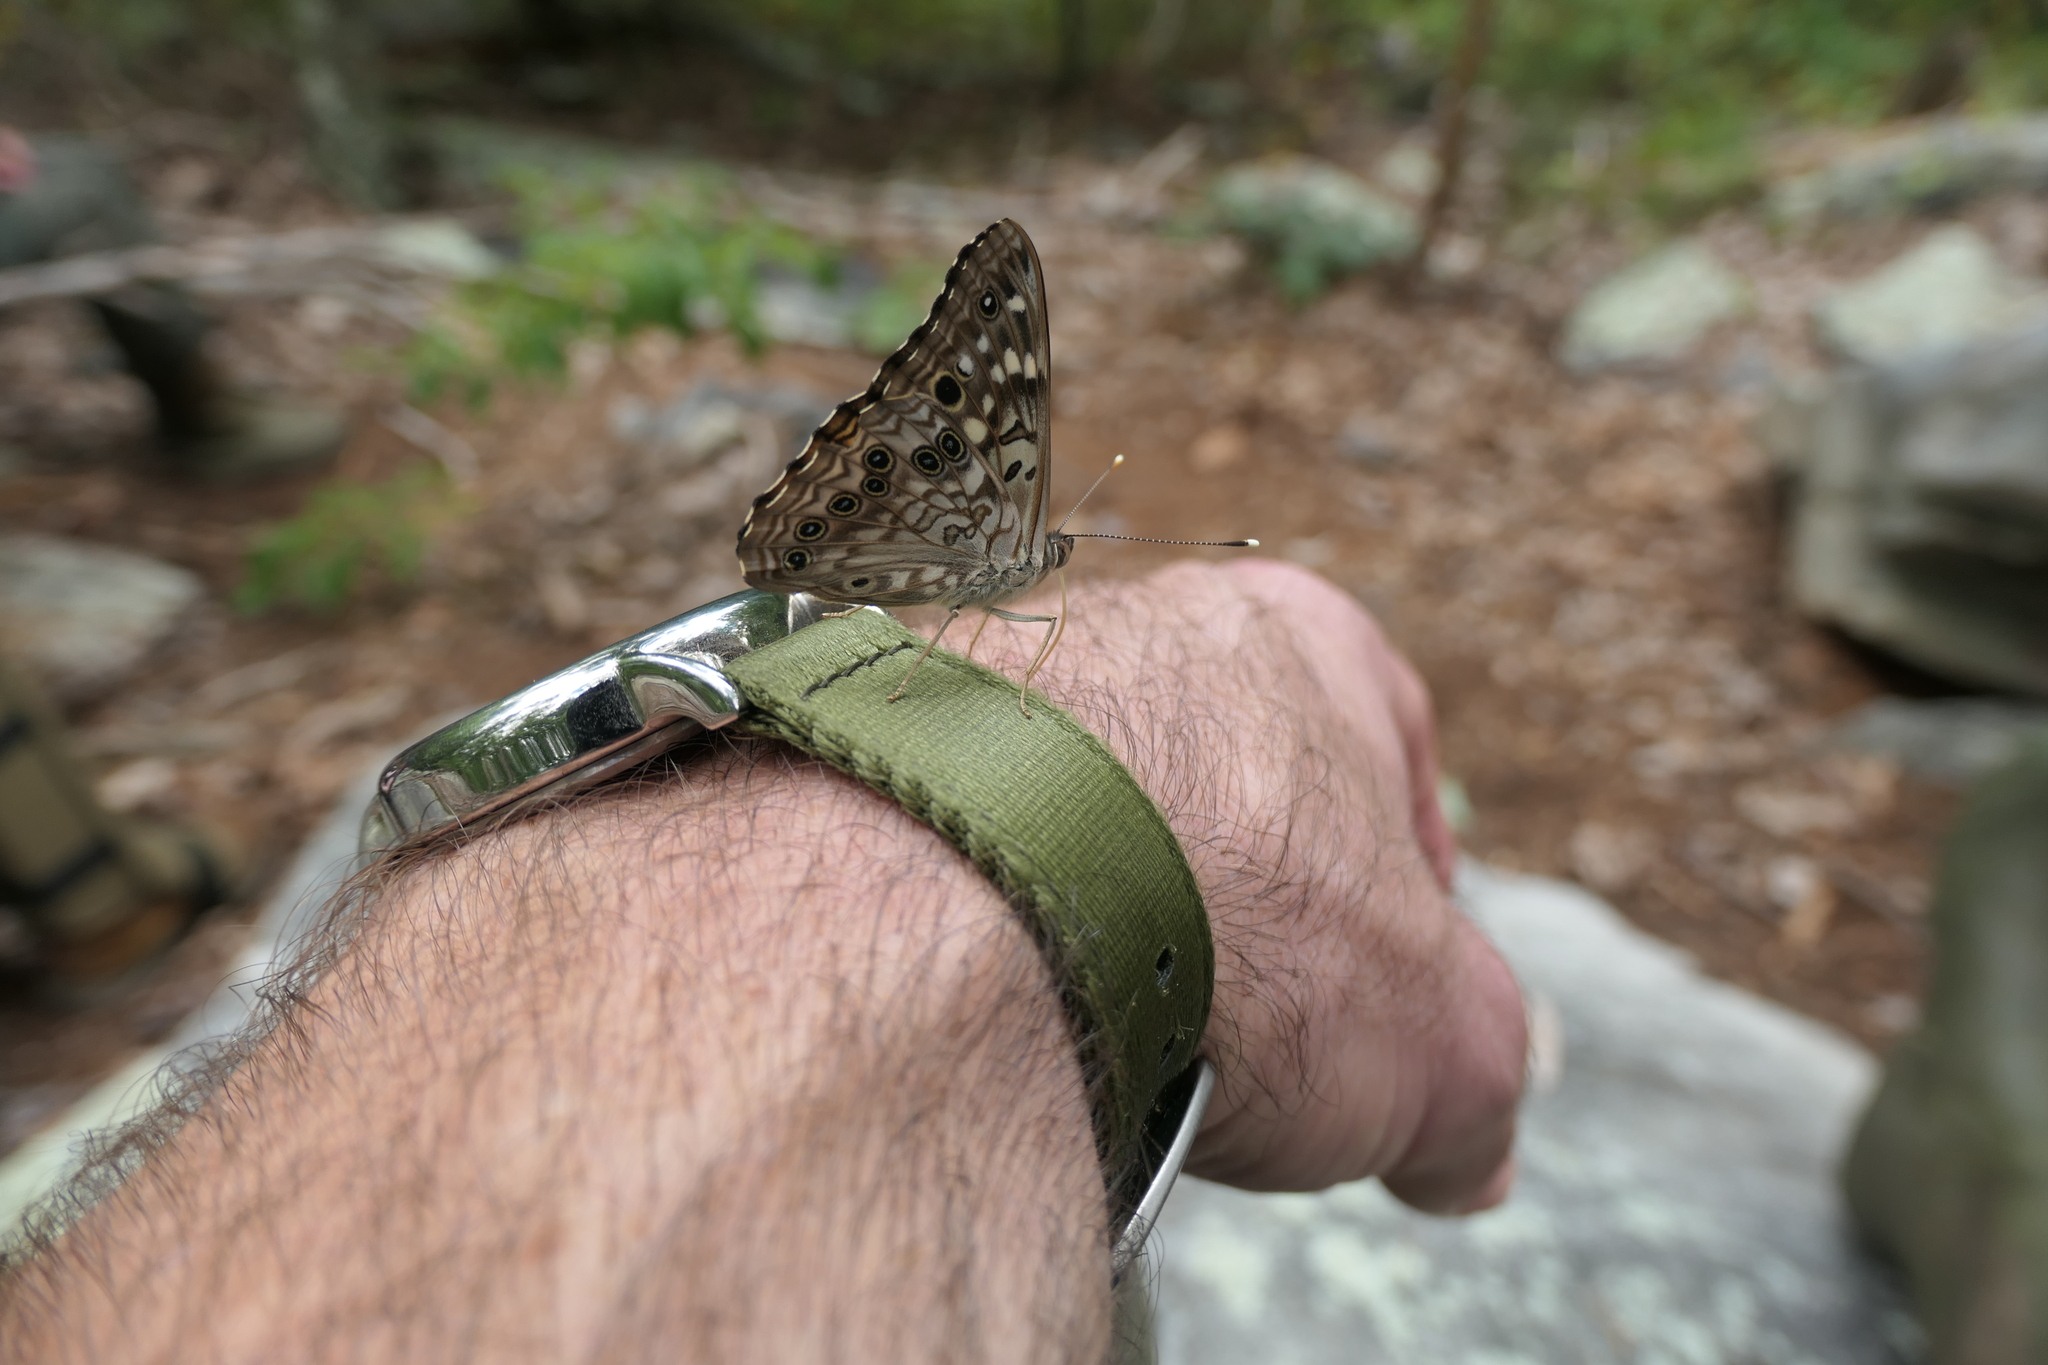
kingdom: Animalia
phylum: Arthropoda
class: Insecta
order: Lepidoptera
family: Nymphalidae
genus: Asterocampa
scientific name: Asterocampa celtis
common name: Hackberry emperor
